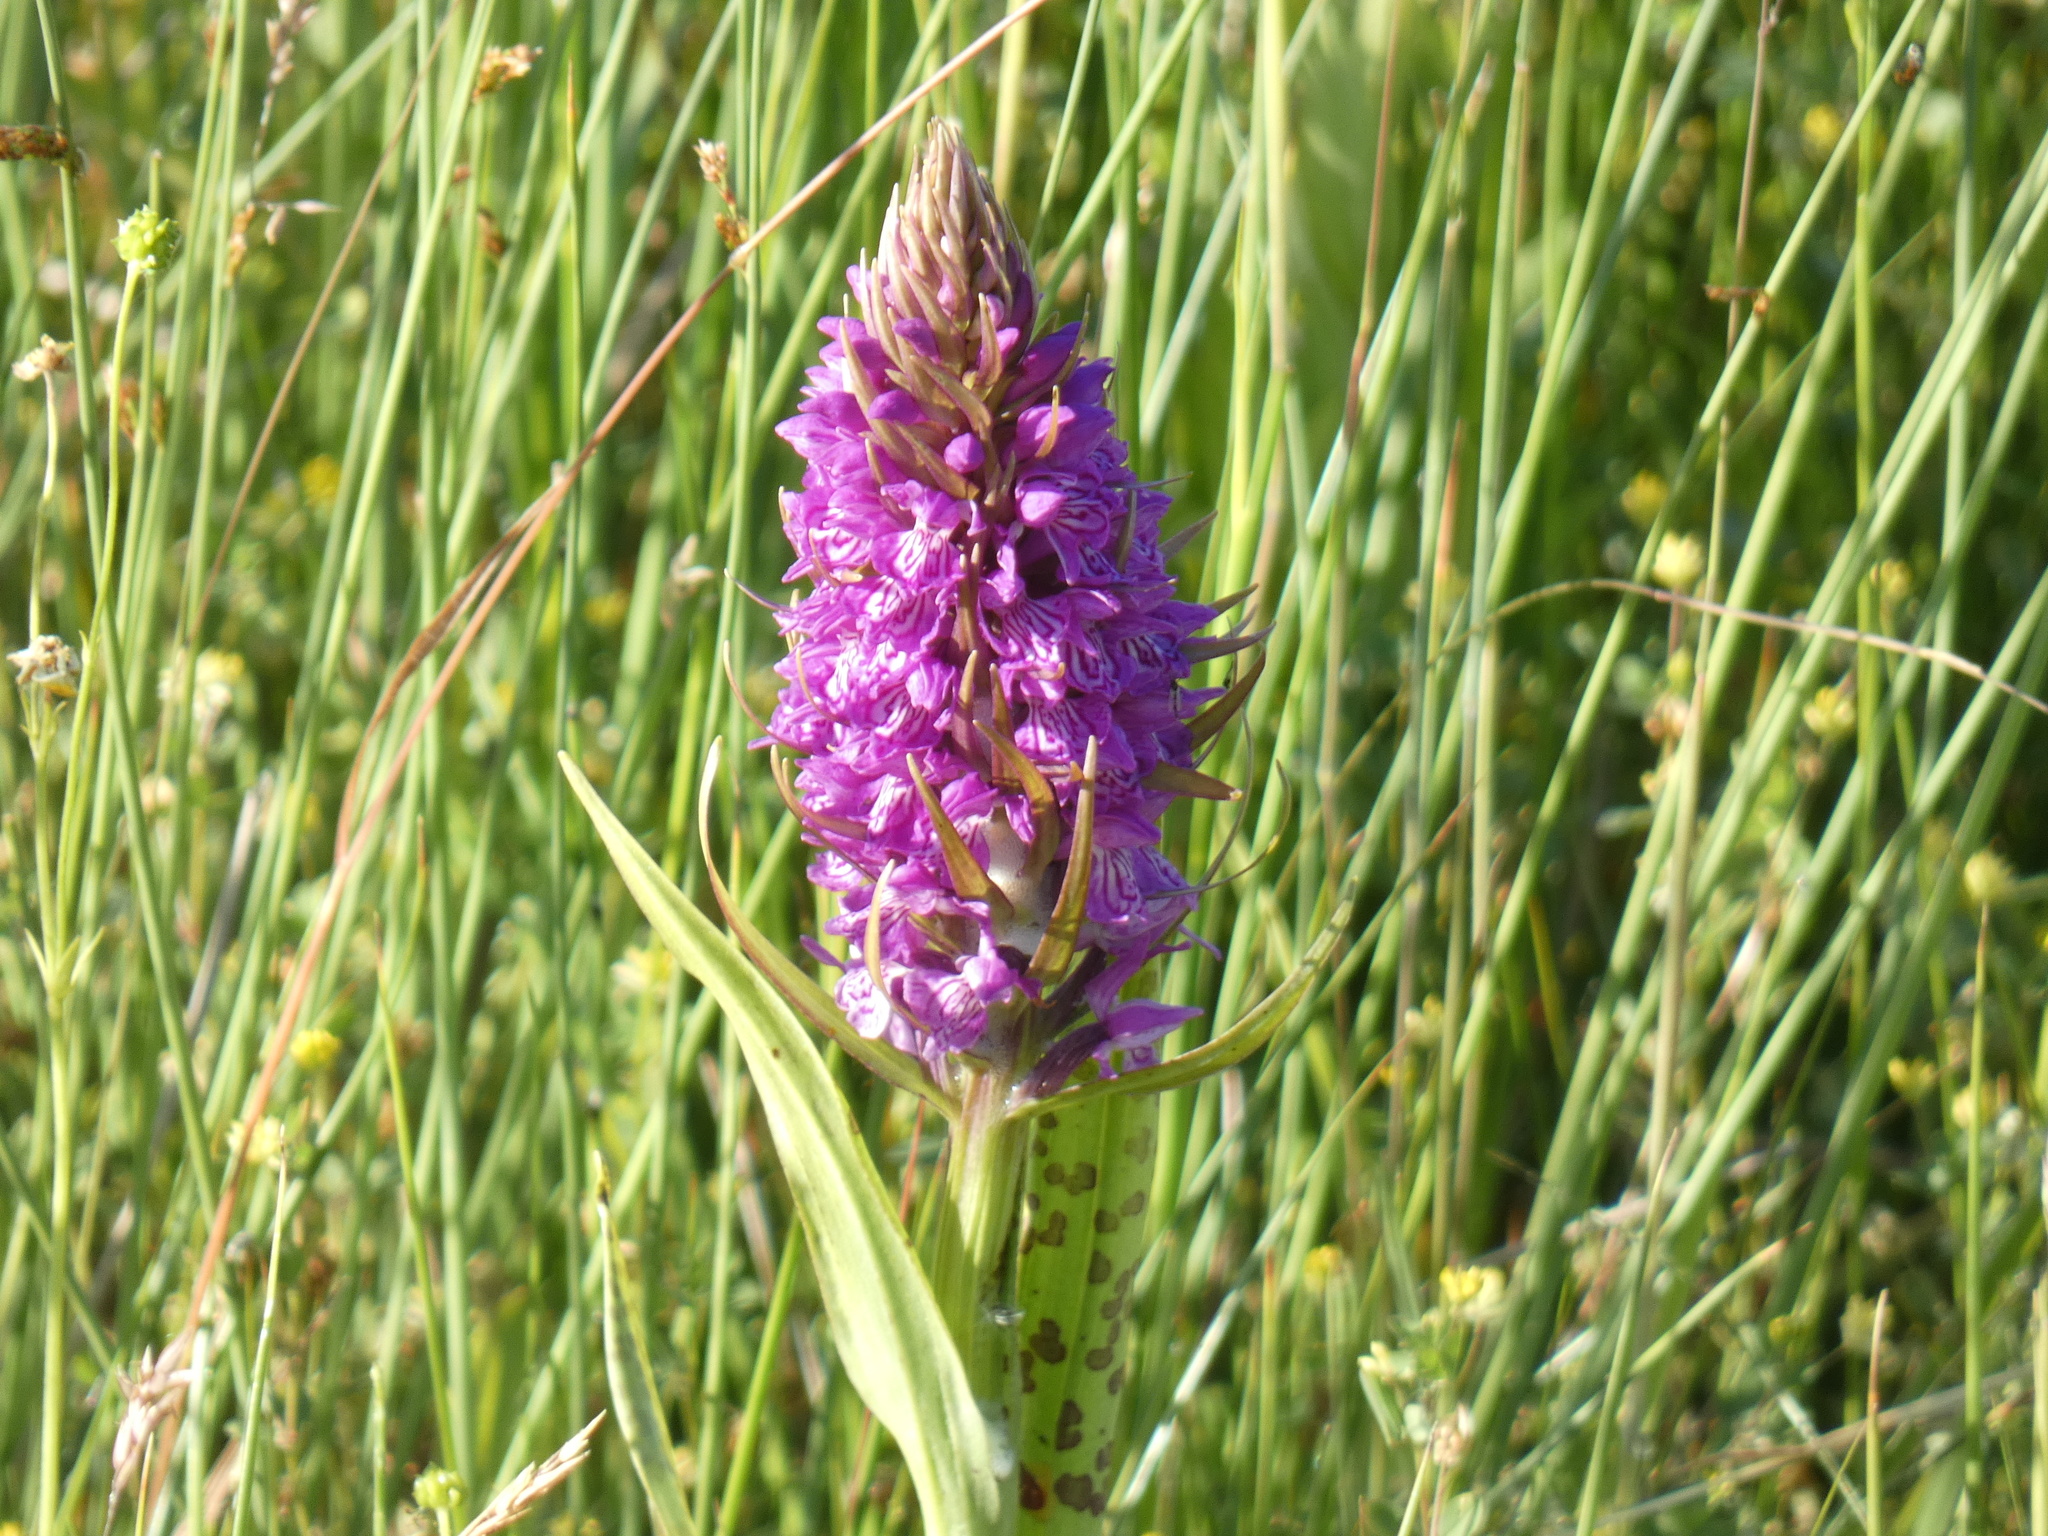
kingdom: Plantae
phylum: Tracheophyta
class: Liliopsida
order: Asparagales
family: Orchidaceae
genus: Dactylorhiza
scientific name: Dactylorhiza majalis
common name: Marsh orchid
